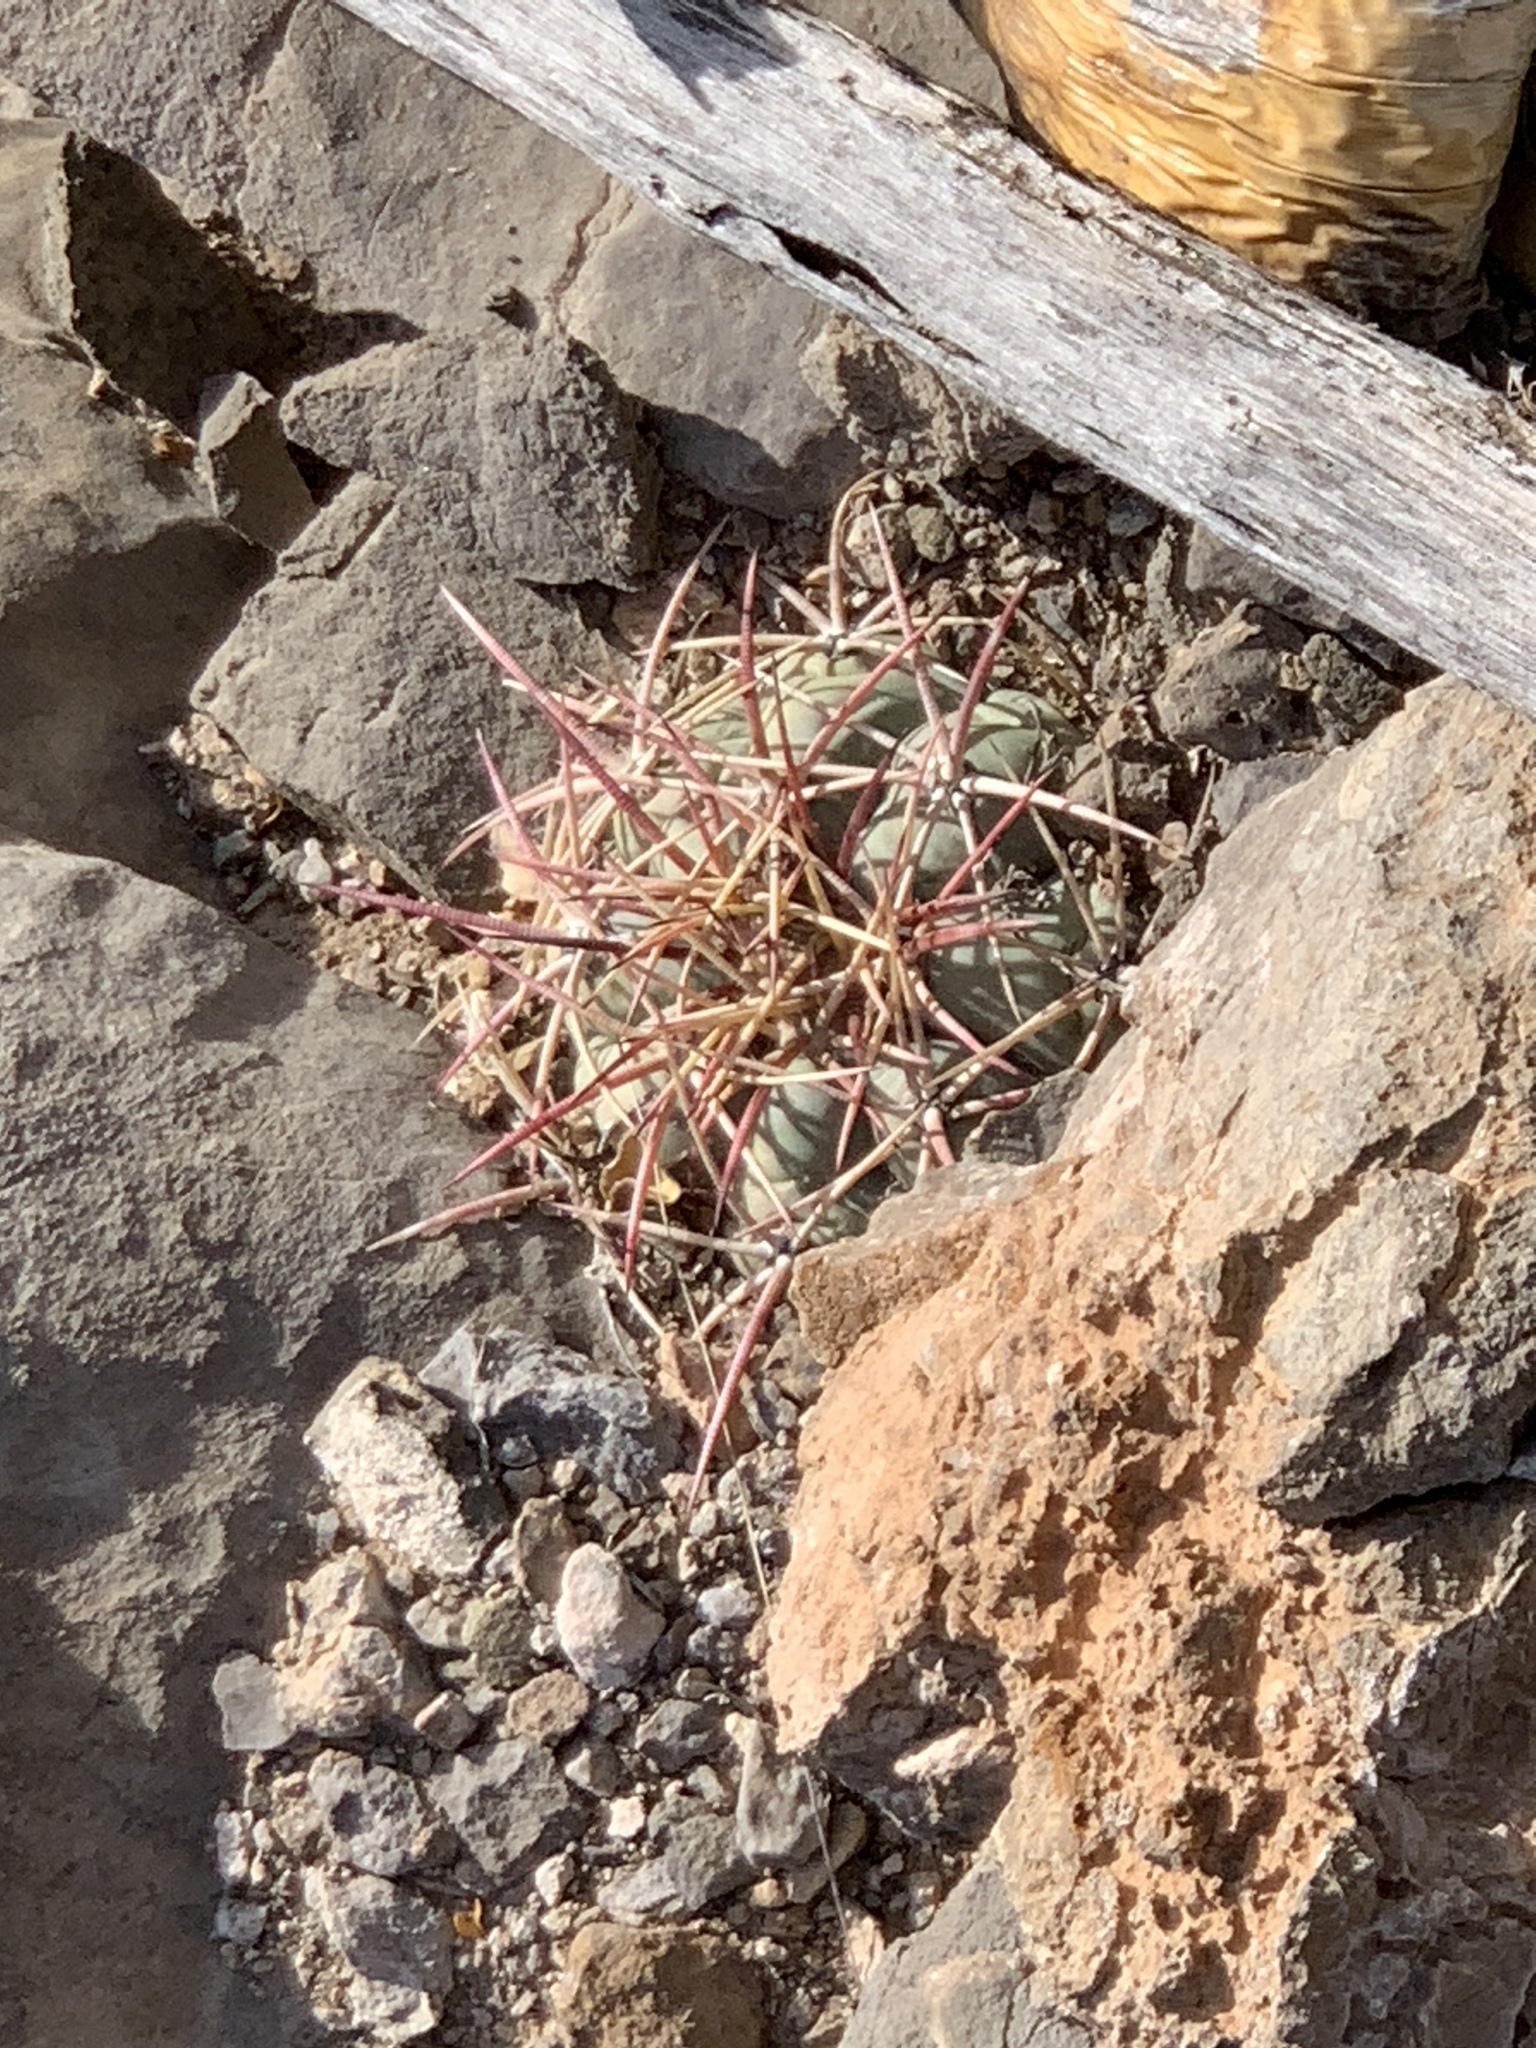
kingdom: Plantae
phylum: Tracheophyta
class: Magnoliopsida
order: Caryophyllales
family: Cactaceae
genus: Echinocactus
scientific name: Echinocactus horizonthalonius
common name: Devilshead
